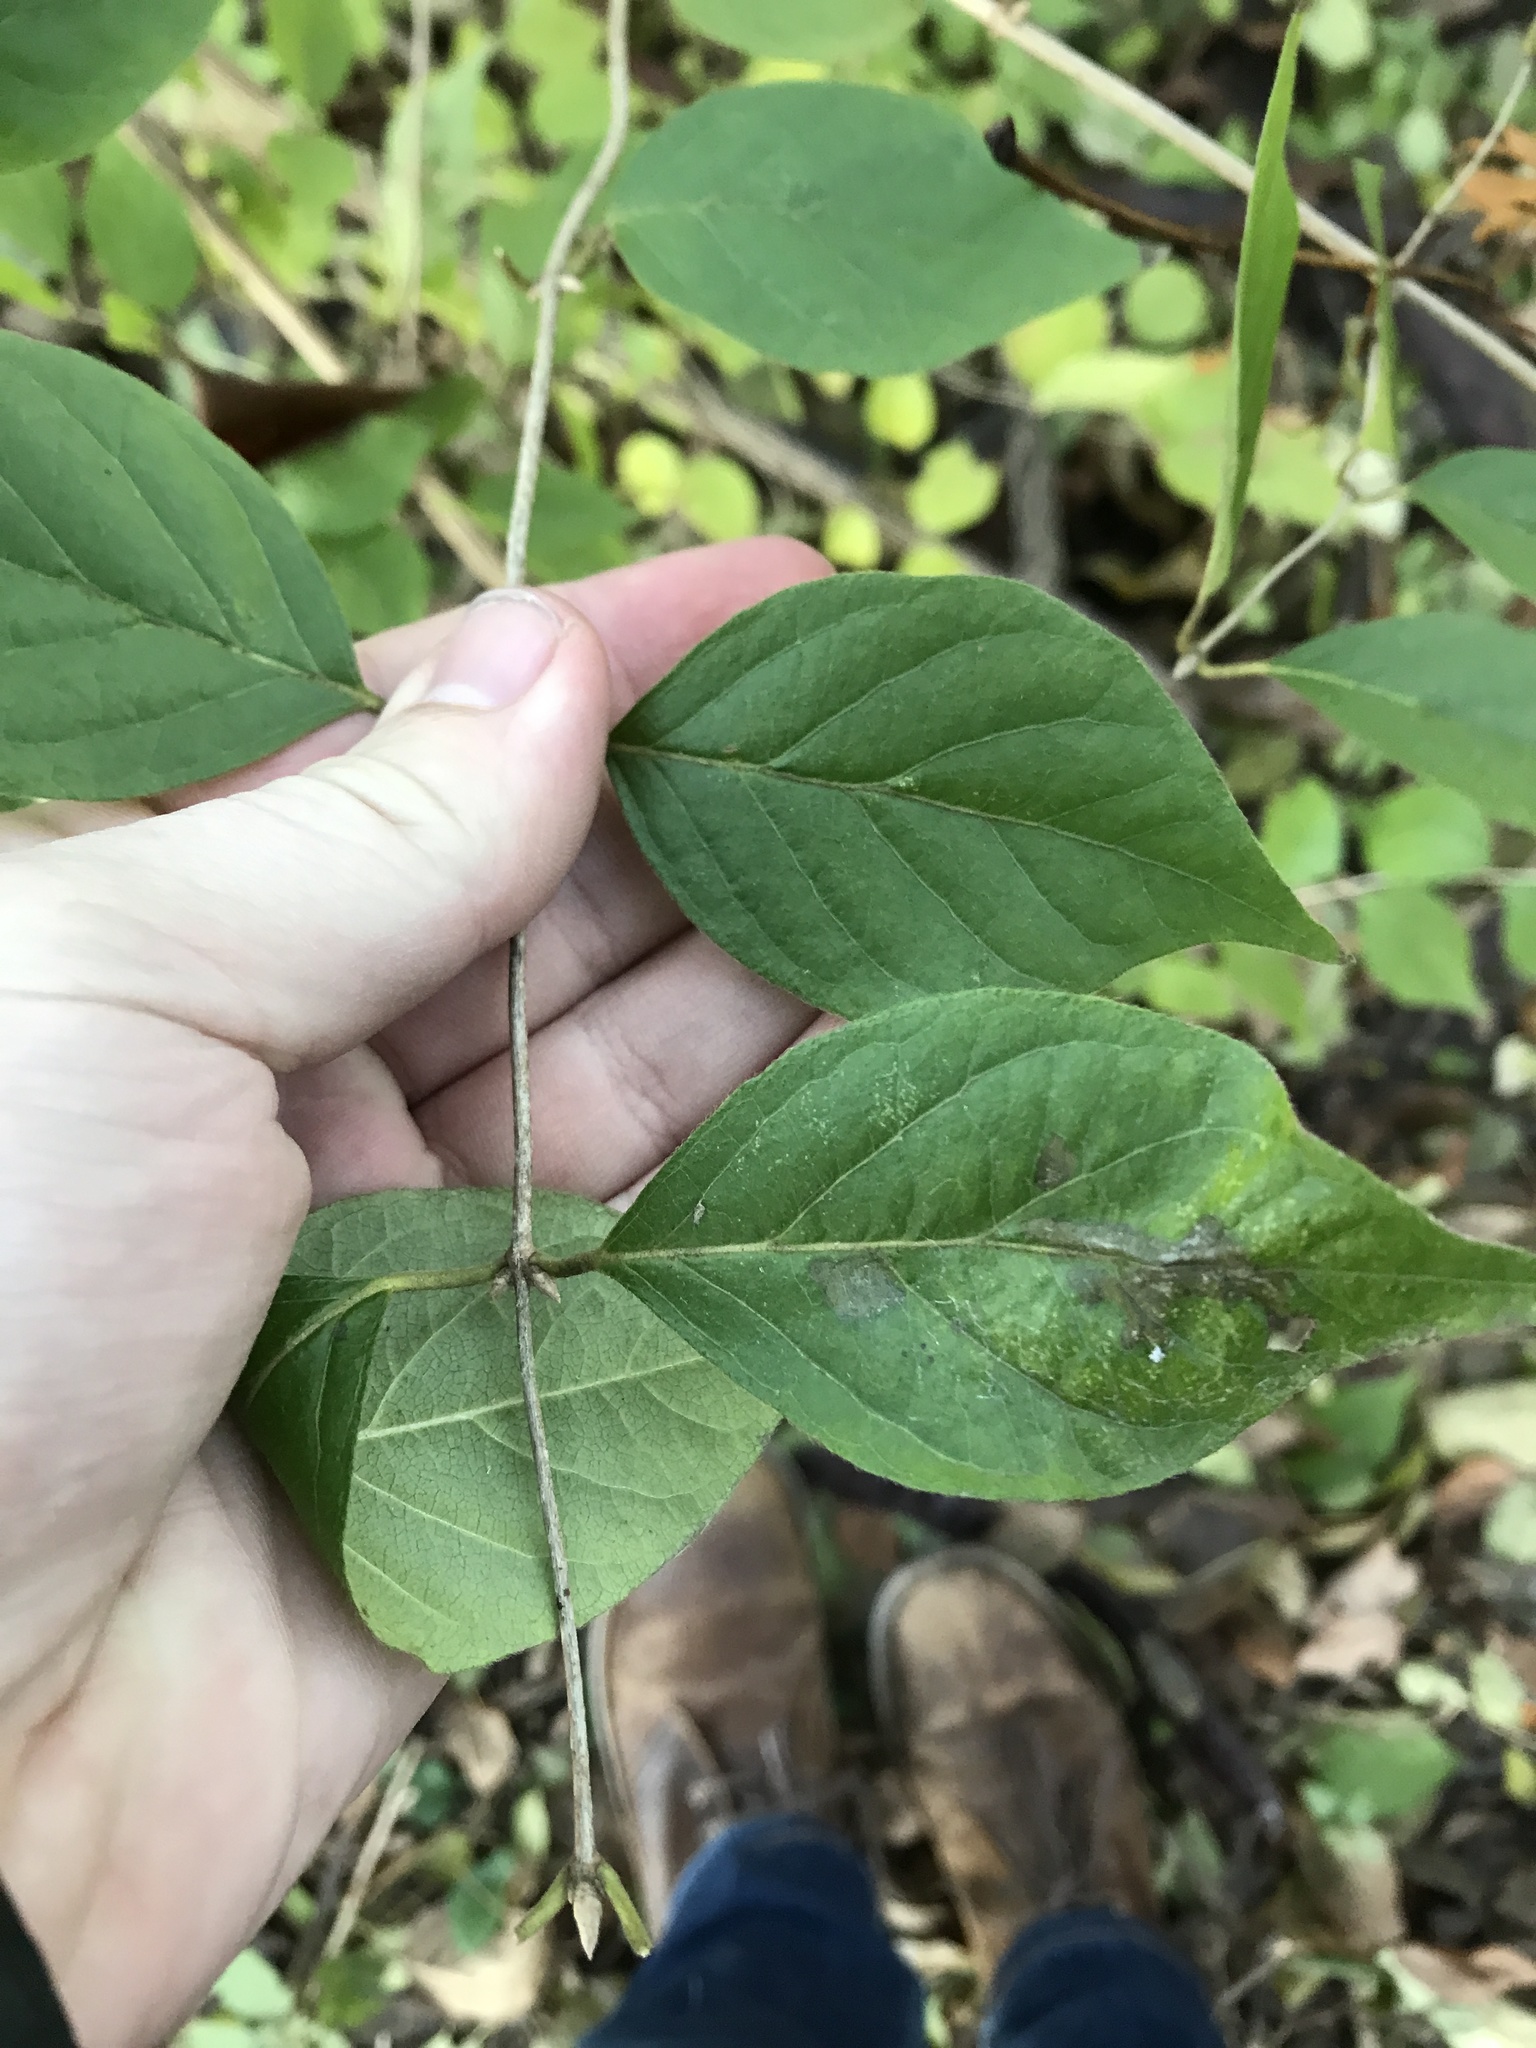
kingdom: Plantae
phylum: Tracheophyta
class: Magnoliopsida
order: Dipsacales
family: Caprifoliaceae
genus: Lonicera
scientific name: Lonicera maackii
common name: Amur honeysuckle
